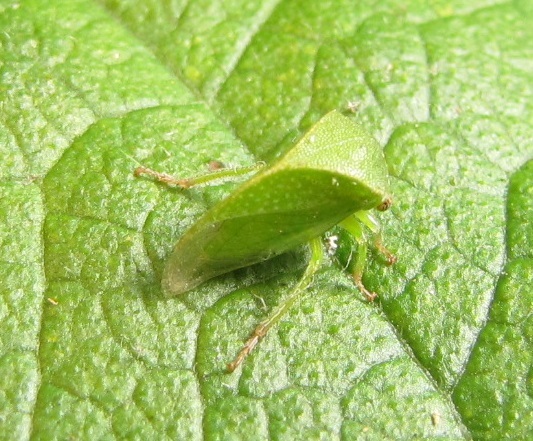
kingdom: Animalia
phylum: Arthropoda
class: Insecta
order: Hemiptera
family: Membracidae
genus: Spissistilus
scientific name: Spissistilus festina
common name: Membracid bug
